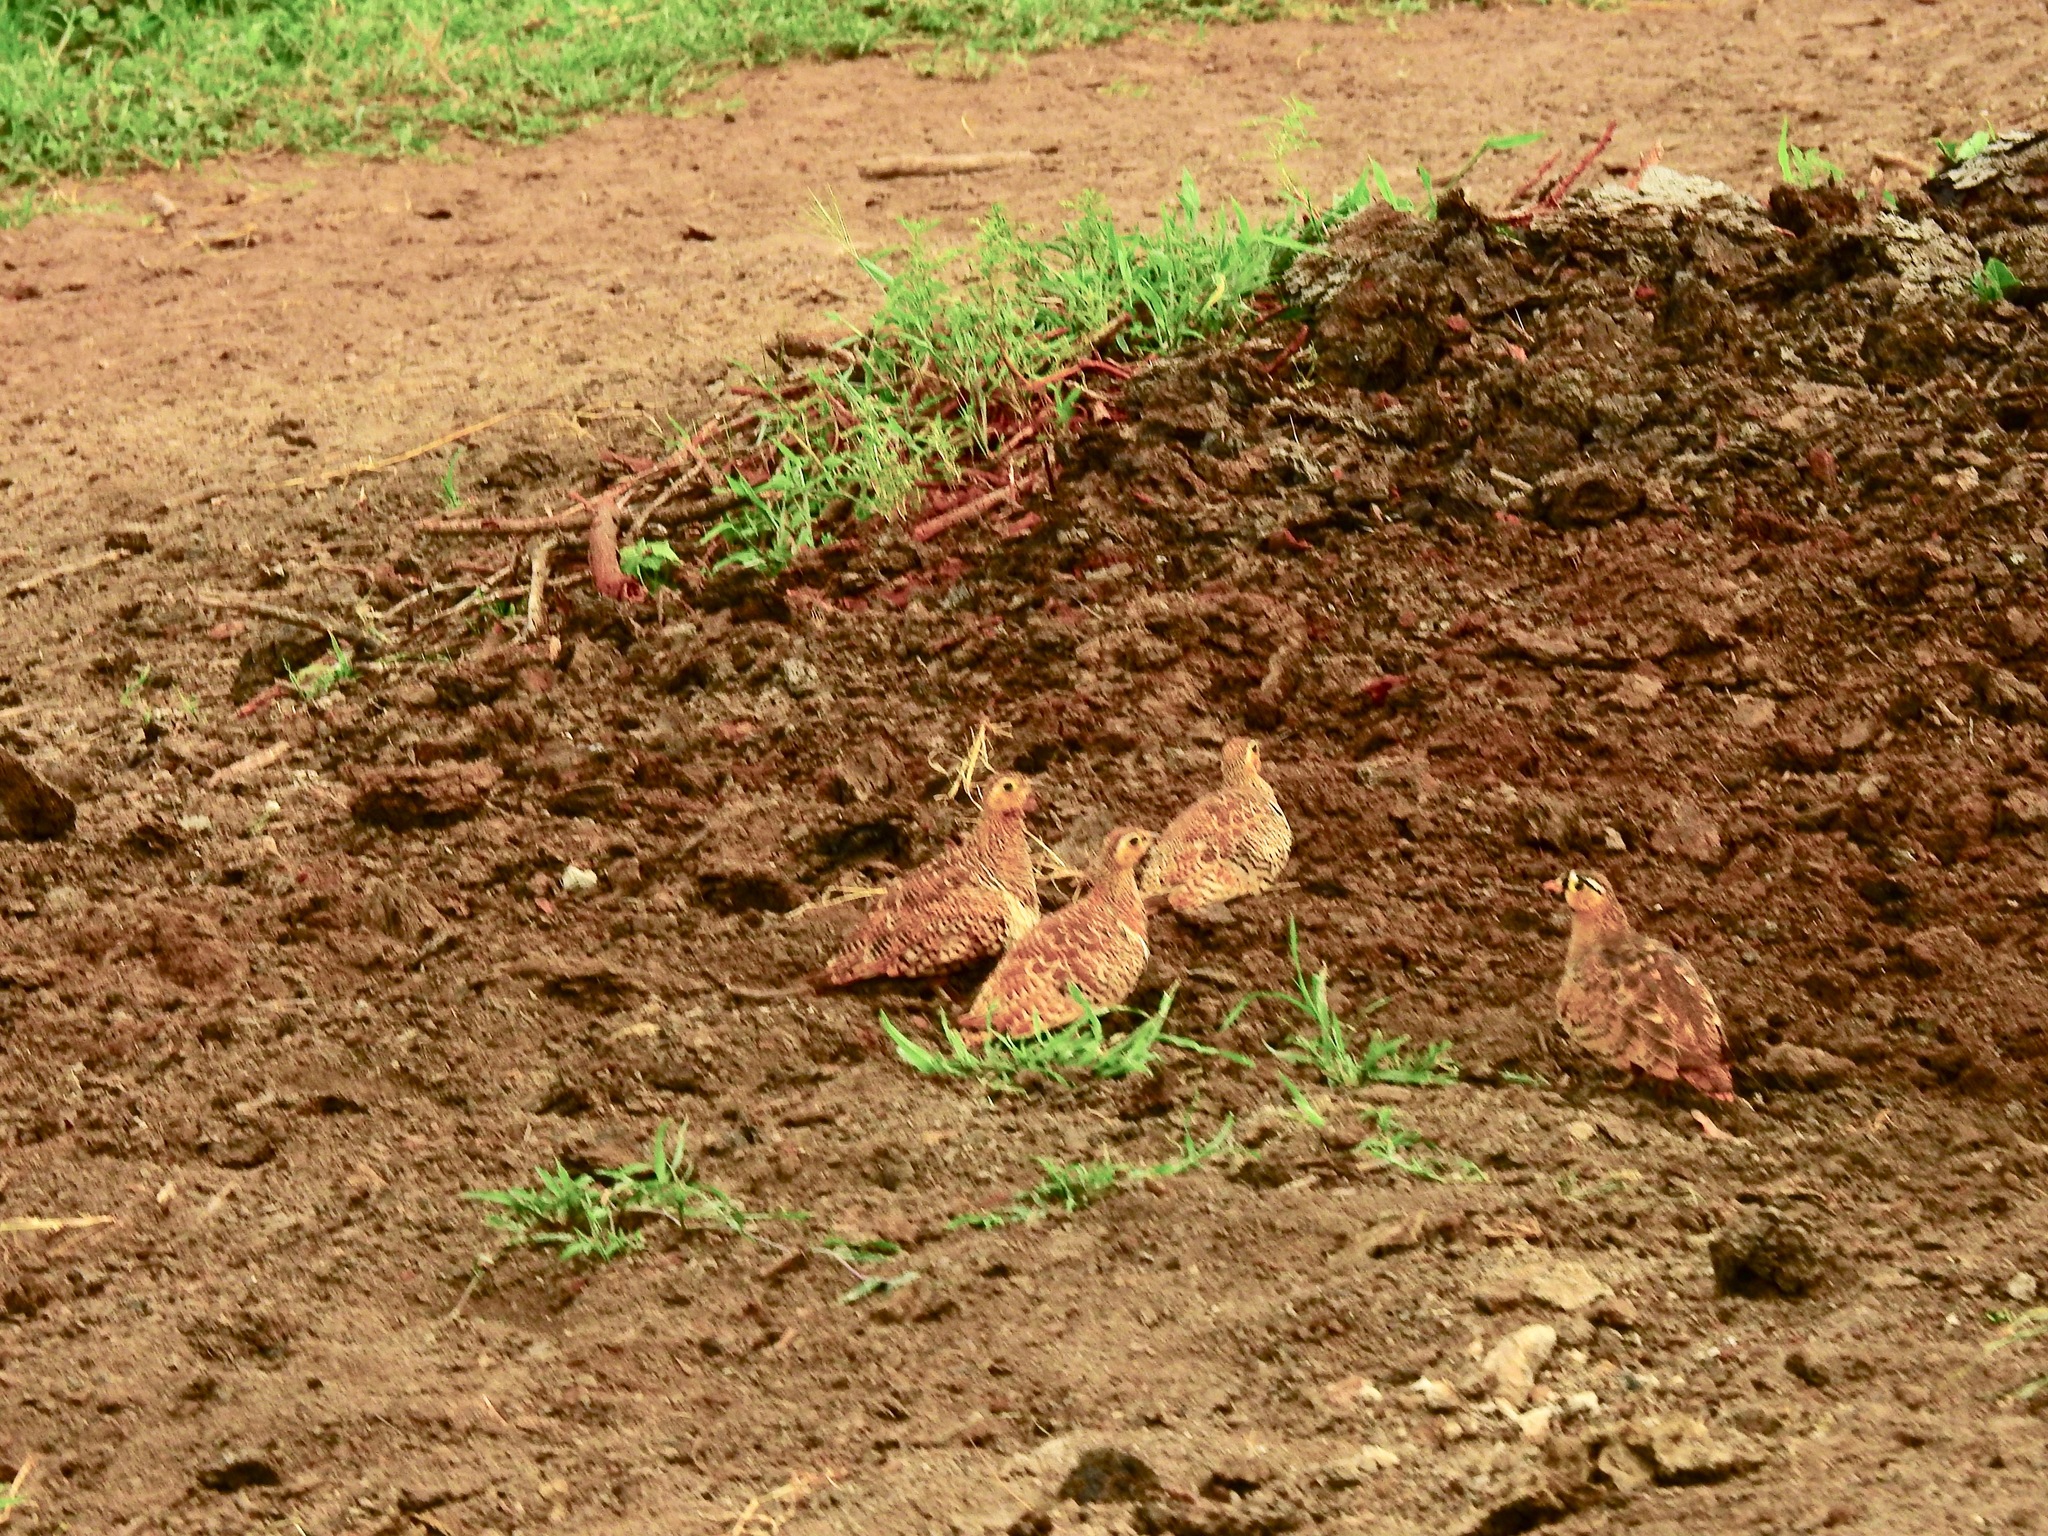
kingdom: Animalia
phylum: Chordata
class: Aves
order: Pteroclidiformes
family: Pteroclididae
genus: Pterocles
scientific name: Pterocles decoratus
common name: Black-faced sandgrouse
